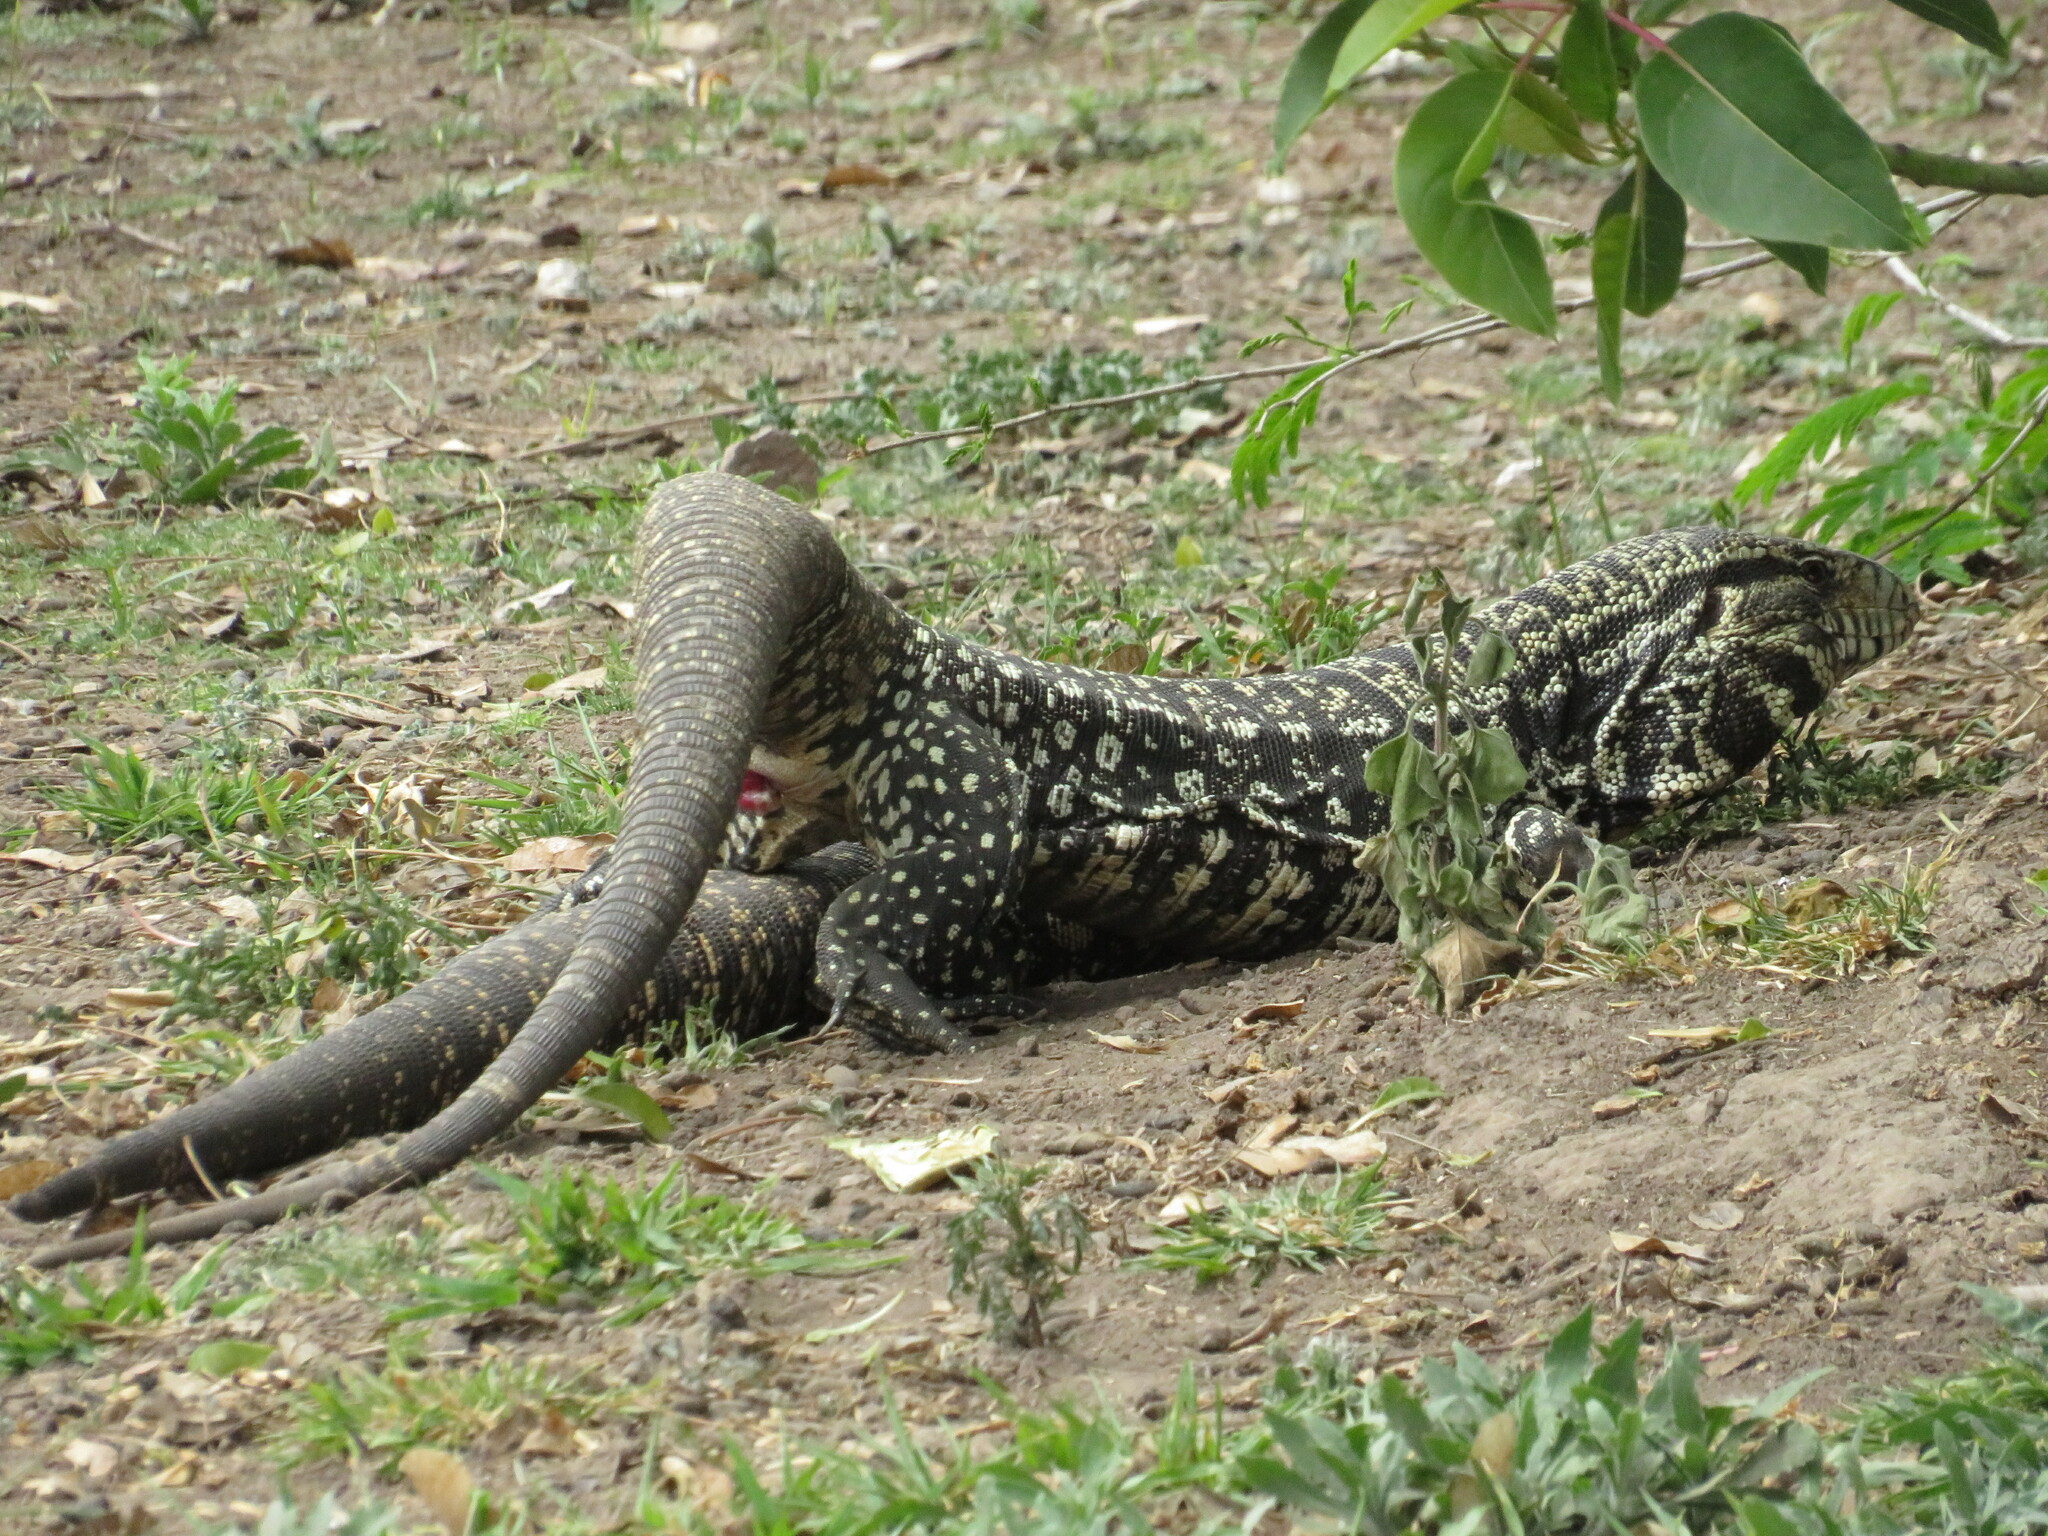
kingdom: Animalia
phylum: Chordata
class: Squamata
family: Teiidae
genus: Salvator
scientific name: Salvator merianae
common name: Argentine black and white tegu
